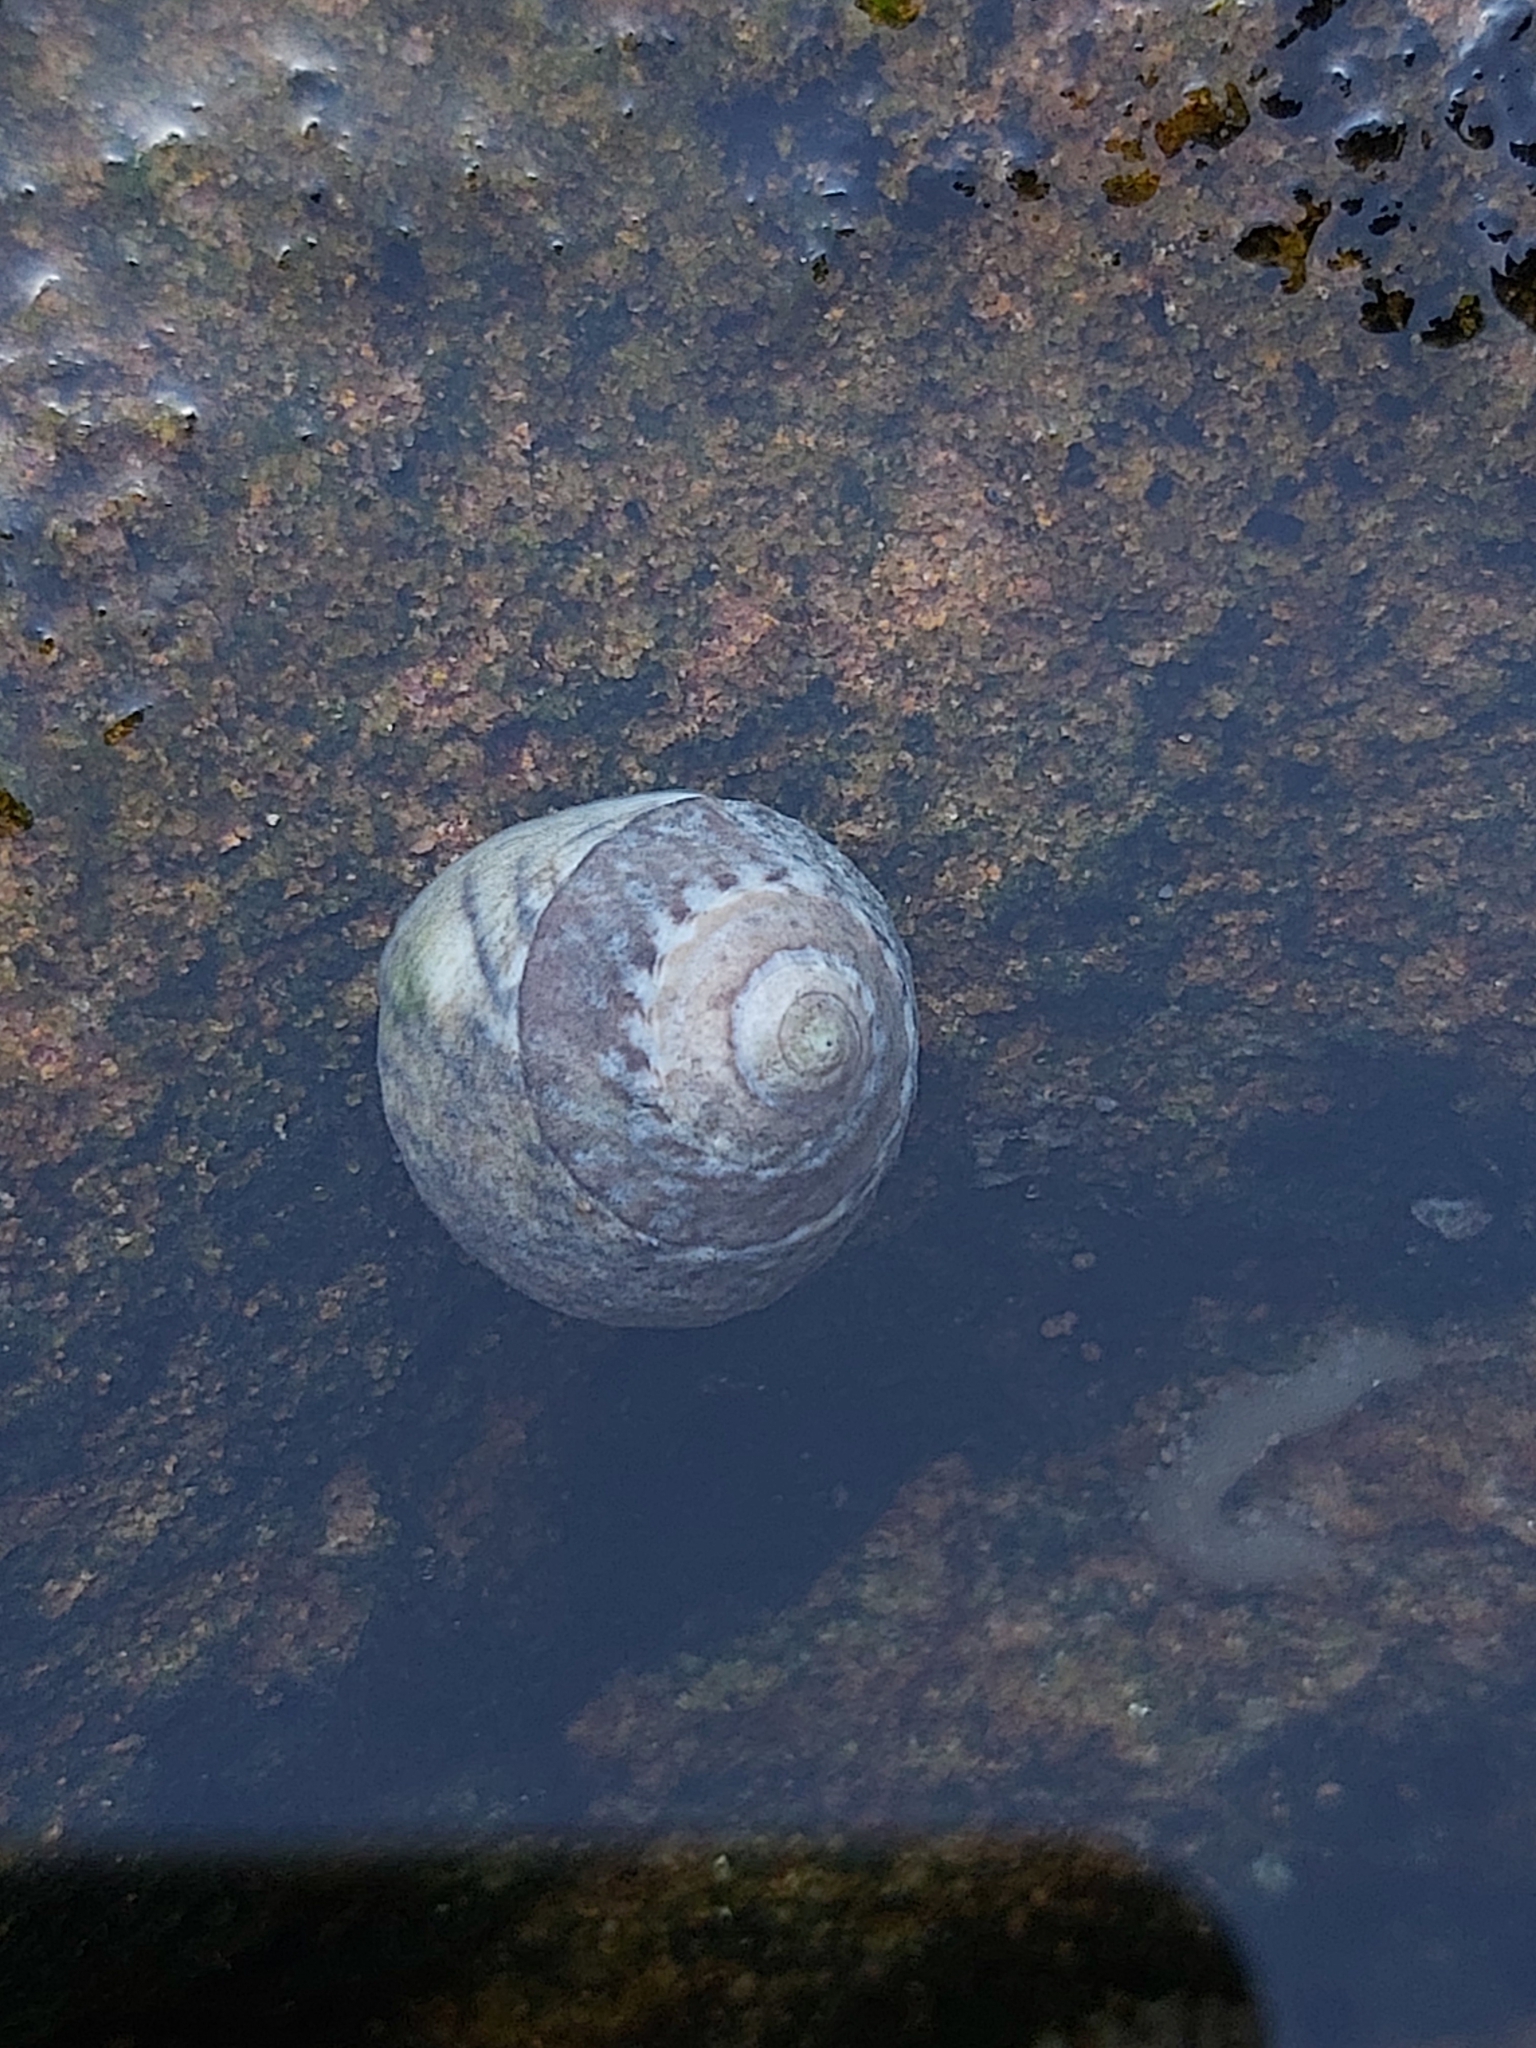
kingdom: Animalia
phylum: Mollusca
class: Gastropoda
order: Littorinimorpha
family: Littorinidae
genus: Bembicium
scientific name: Bembicium nanum
